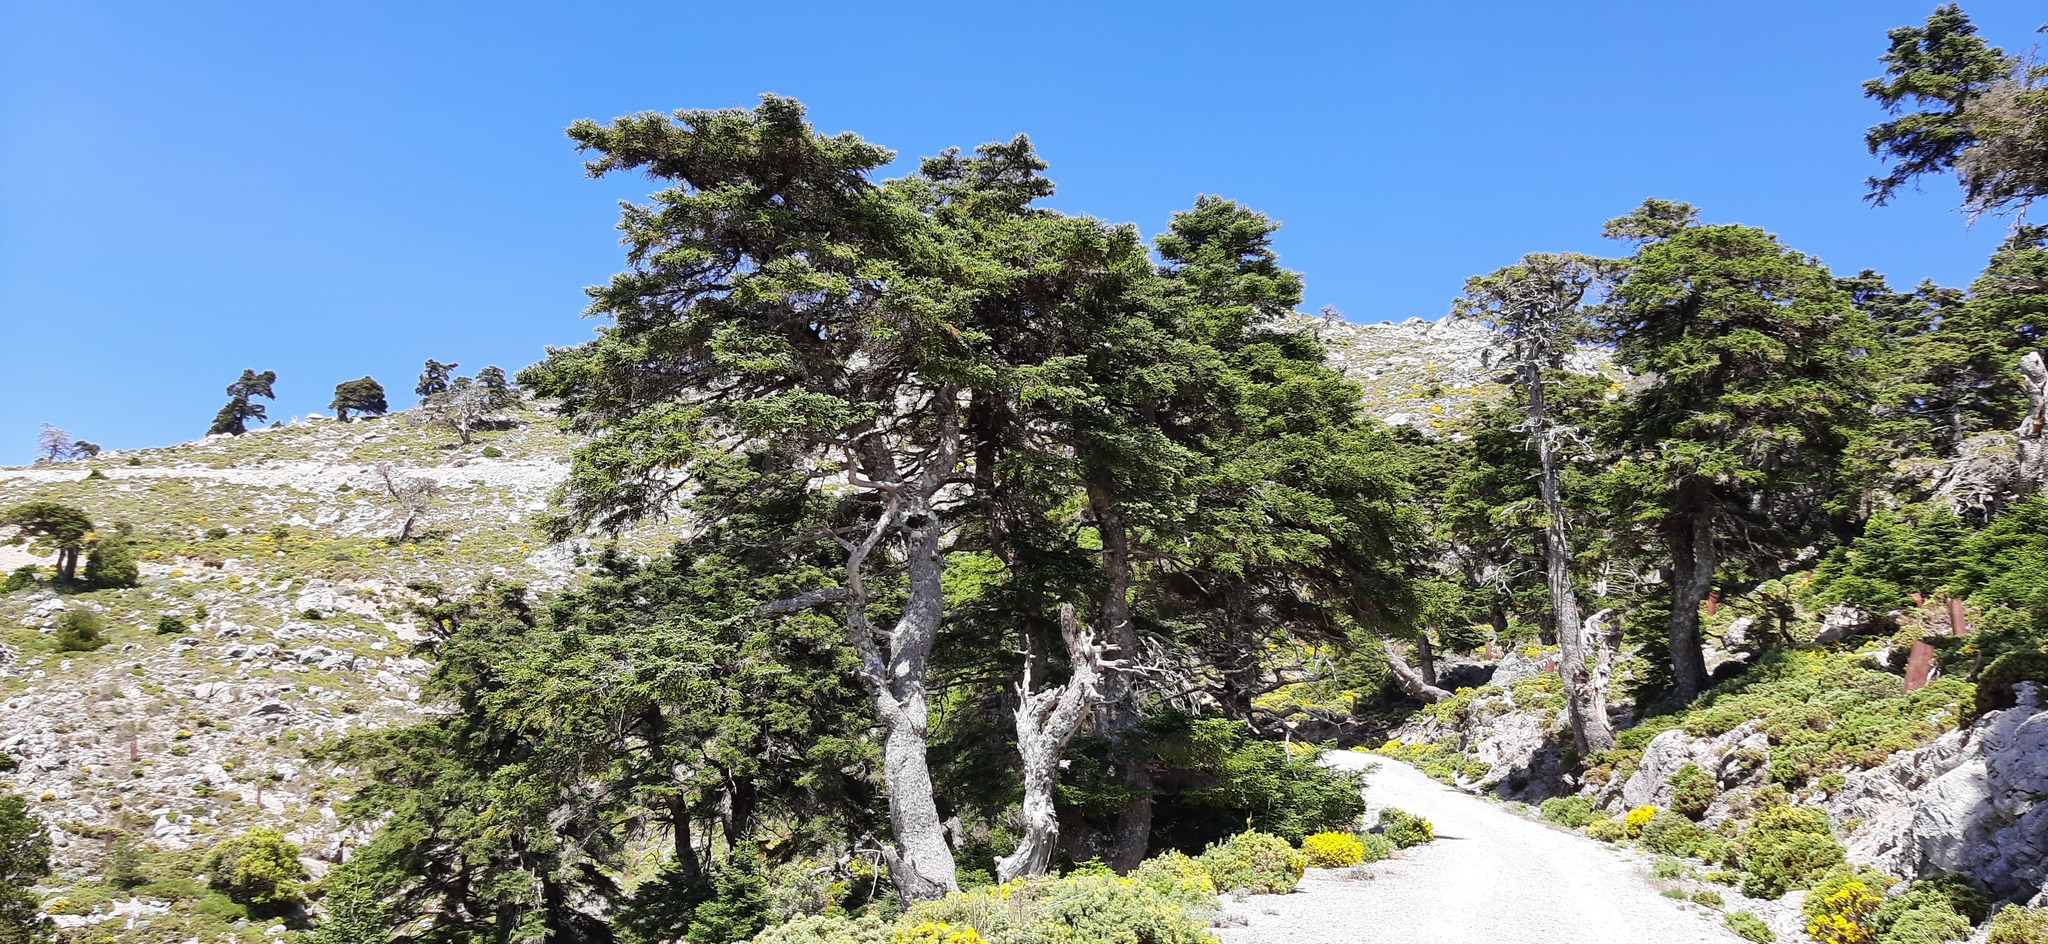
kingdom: Plantae
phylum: Tracheophyta
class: Pinopsida
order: Pinales
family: Pinaceae
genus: Abies
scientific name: Abies pinsapo
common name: Spanish fir
